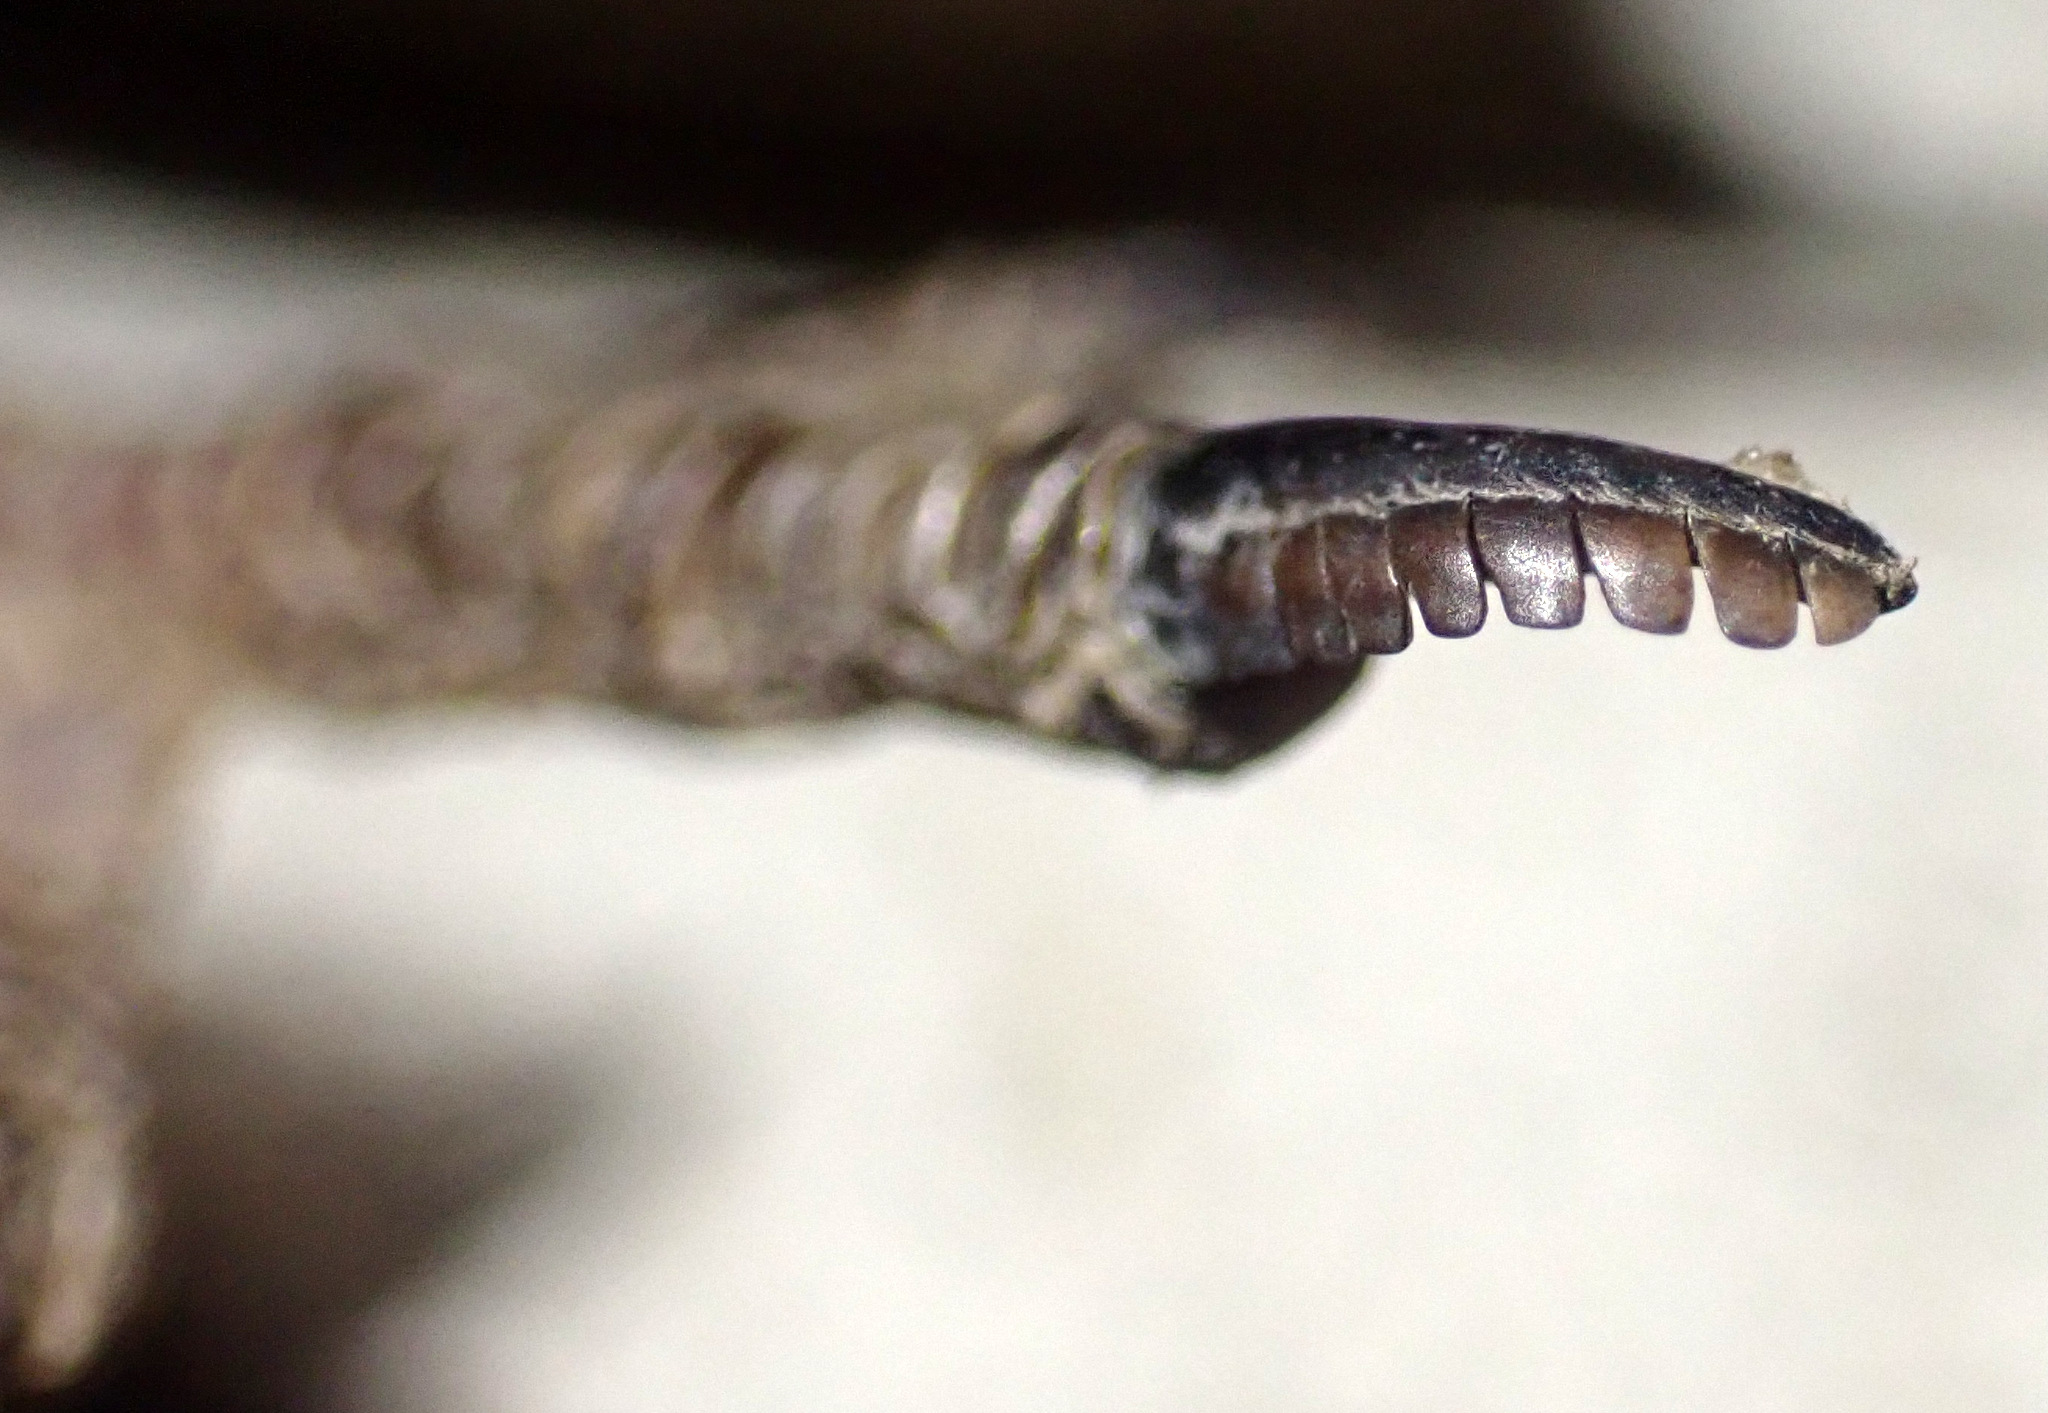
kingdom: Animalia
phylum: Chordata
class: Aves
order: Caprimulgiformes
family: Caprimulgidae
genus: Caprimulgus
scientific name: Caprimulgus europaeus
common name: European nightjar
